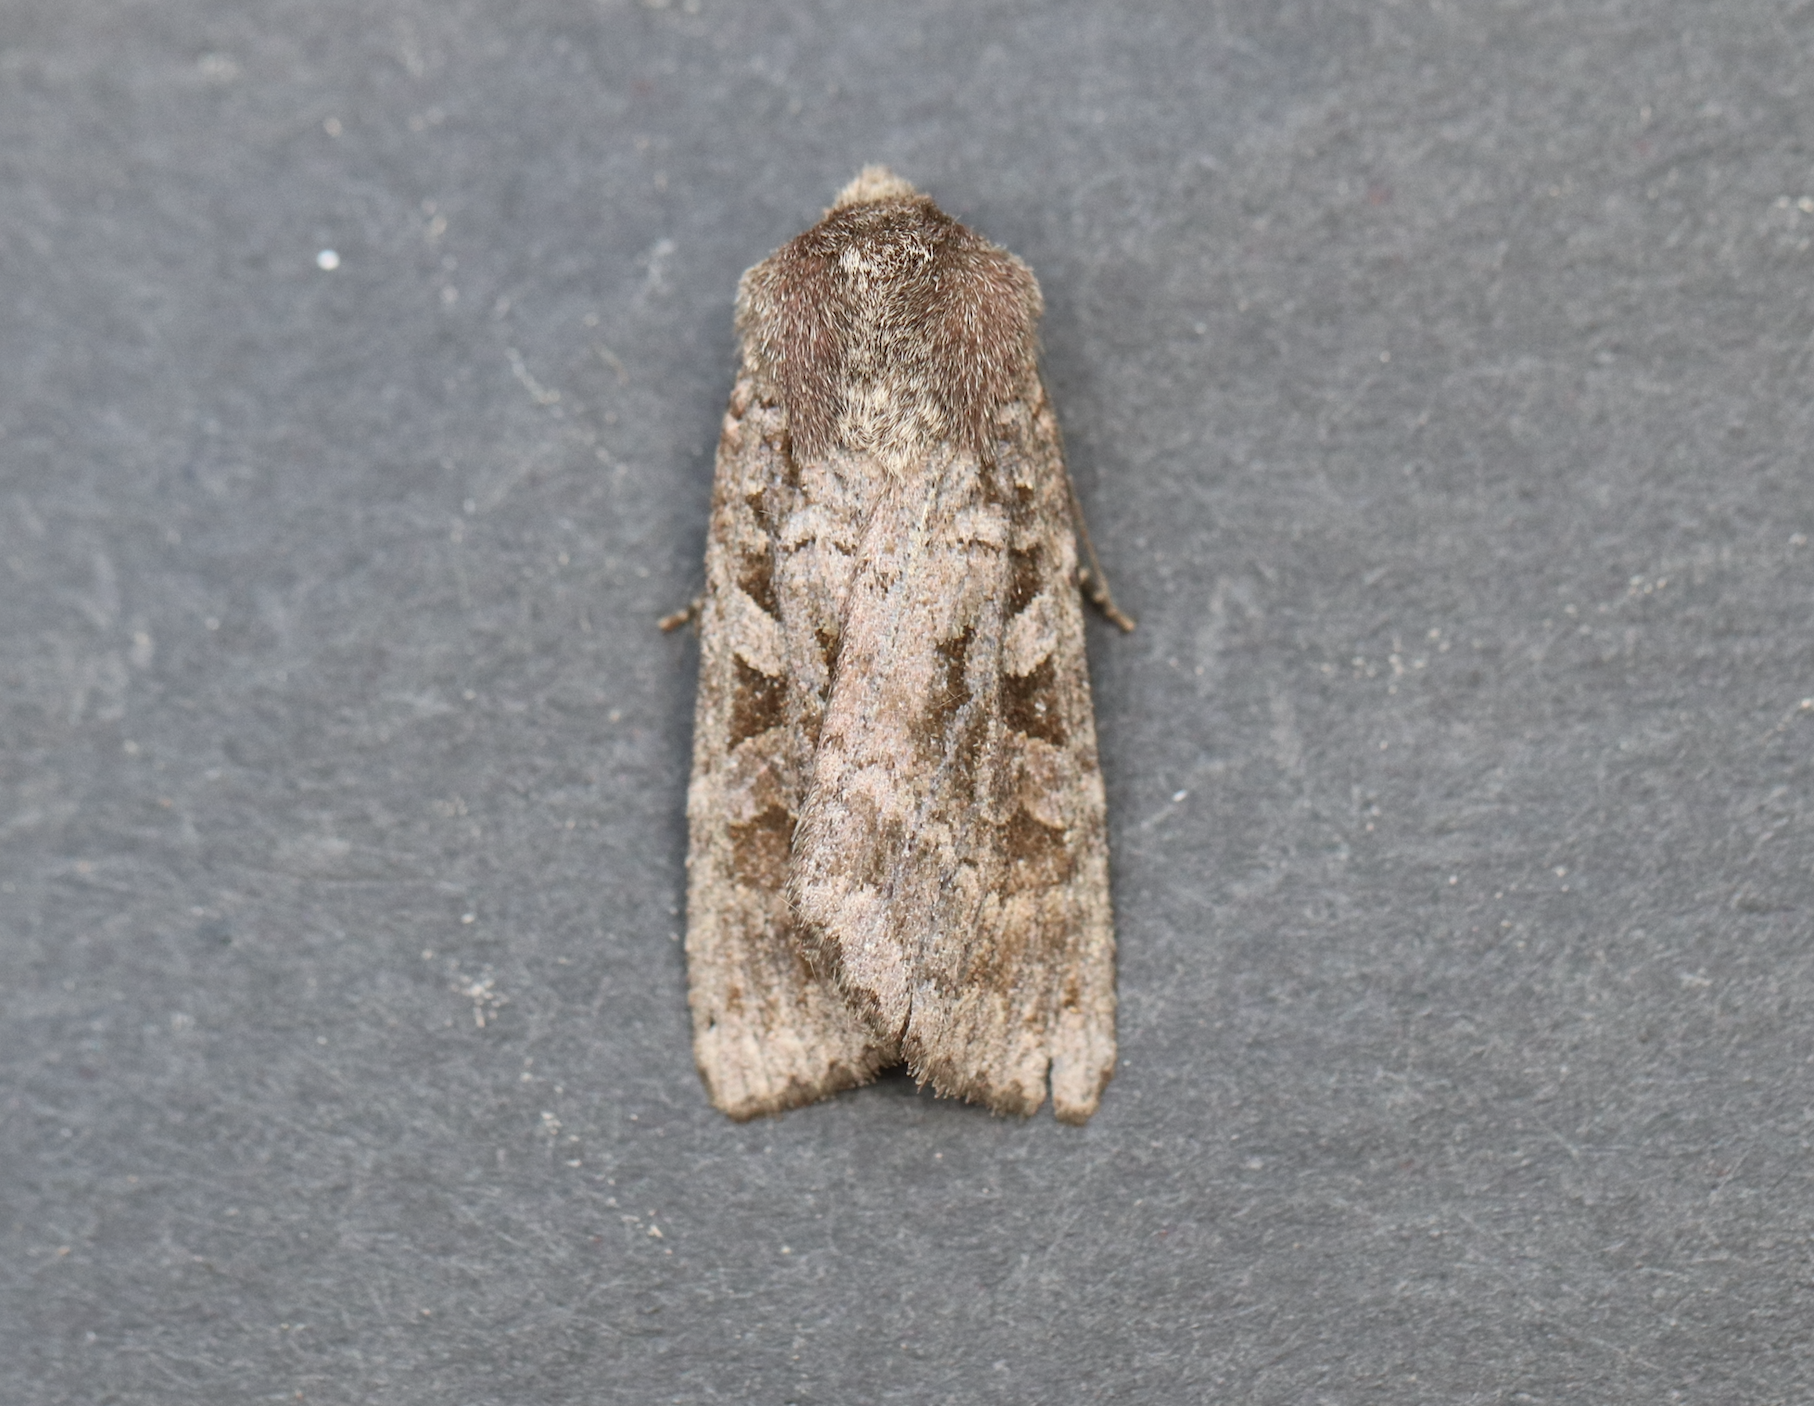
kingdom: Animalia
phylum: Arthropoda
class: Insecta
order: Lepidoptera
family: Noctuidae
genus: Eurois
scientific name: Eurois astricta
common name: Great brown dart
